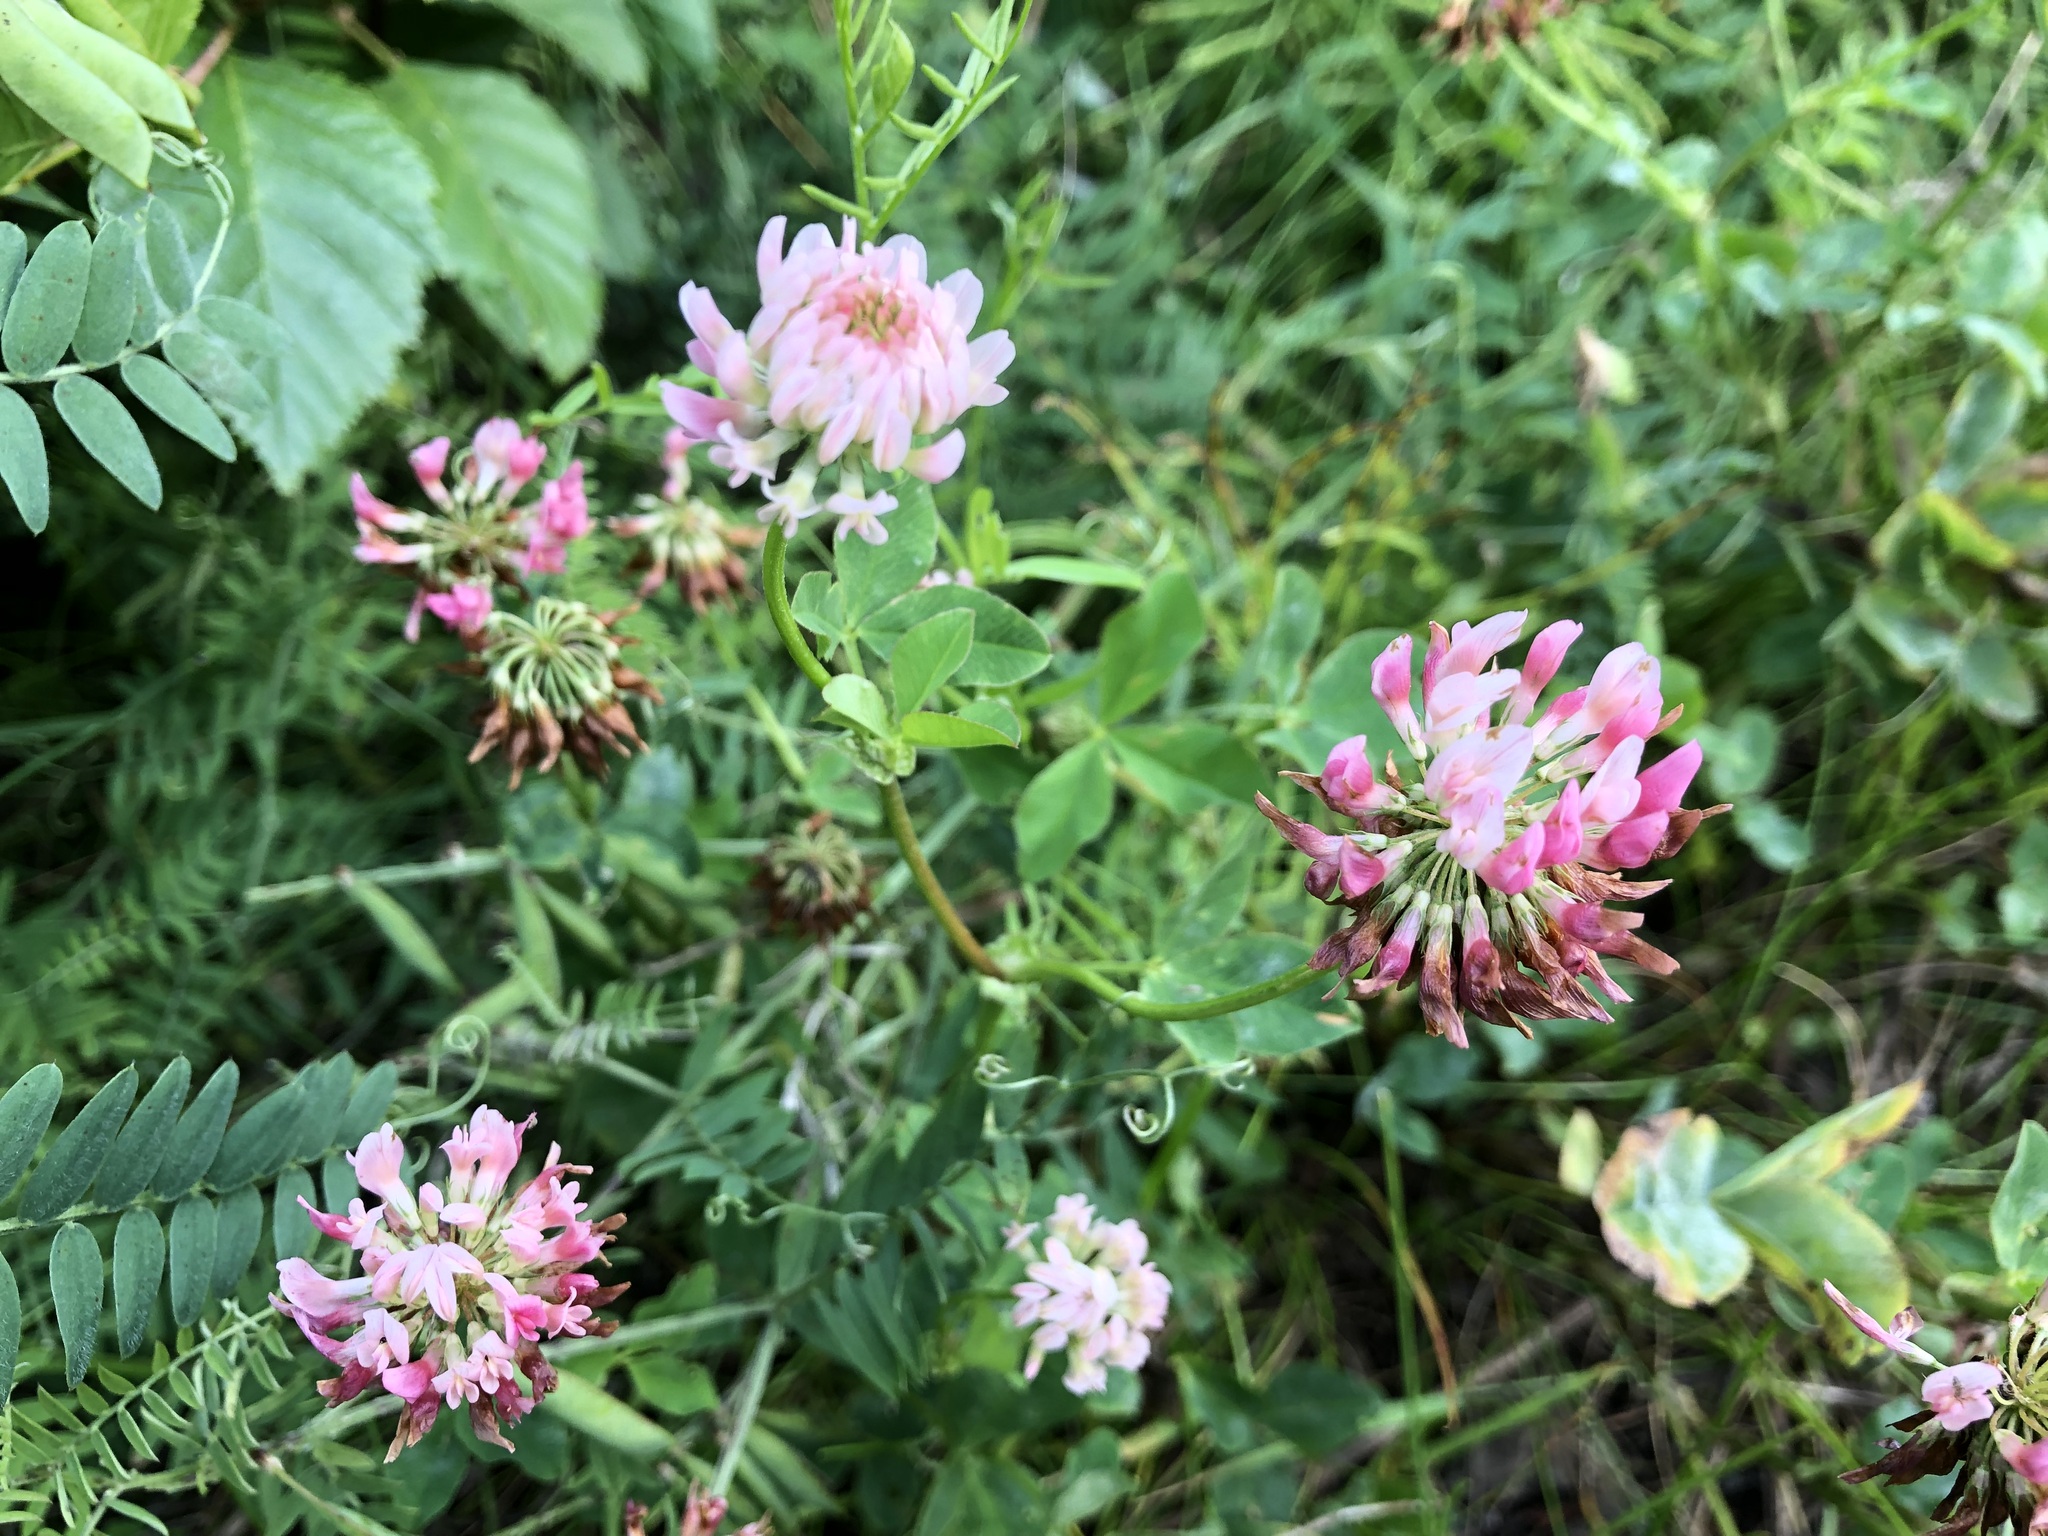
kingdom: Plantae
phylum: Tracheophyta
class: Magnoliopsida
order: Fabales
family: Fabaceae
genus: Trifolium
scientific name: Trifolium hybridum
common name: Alsike clover
